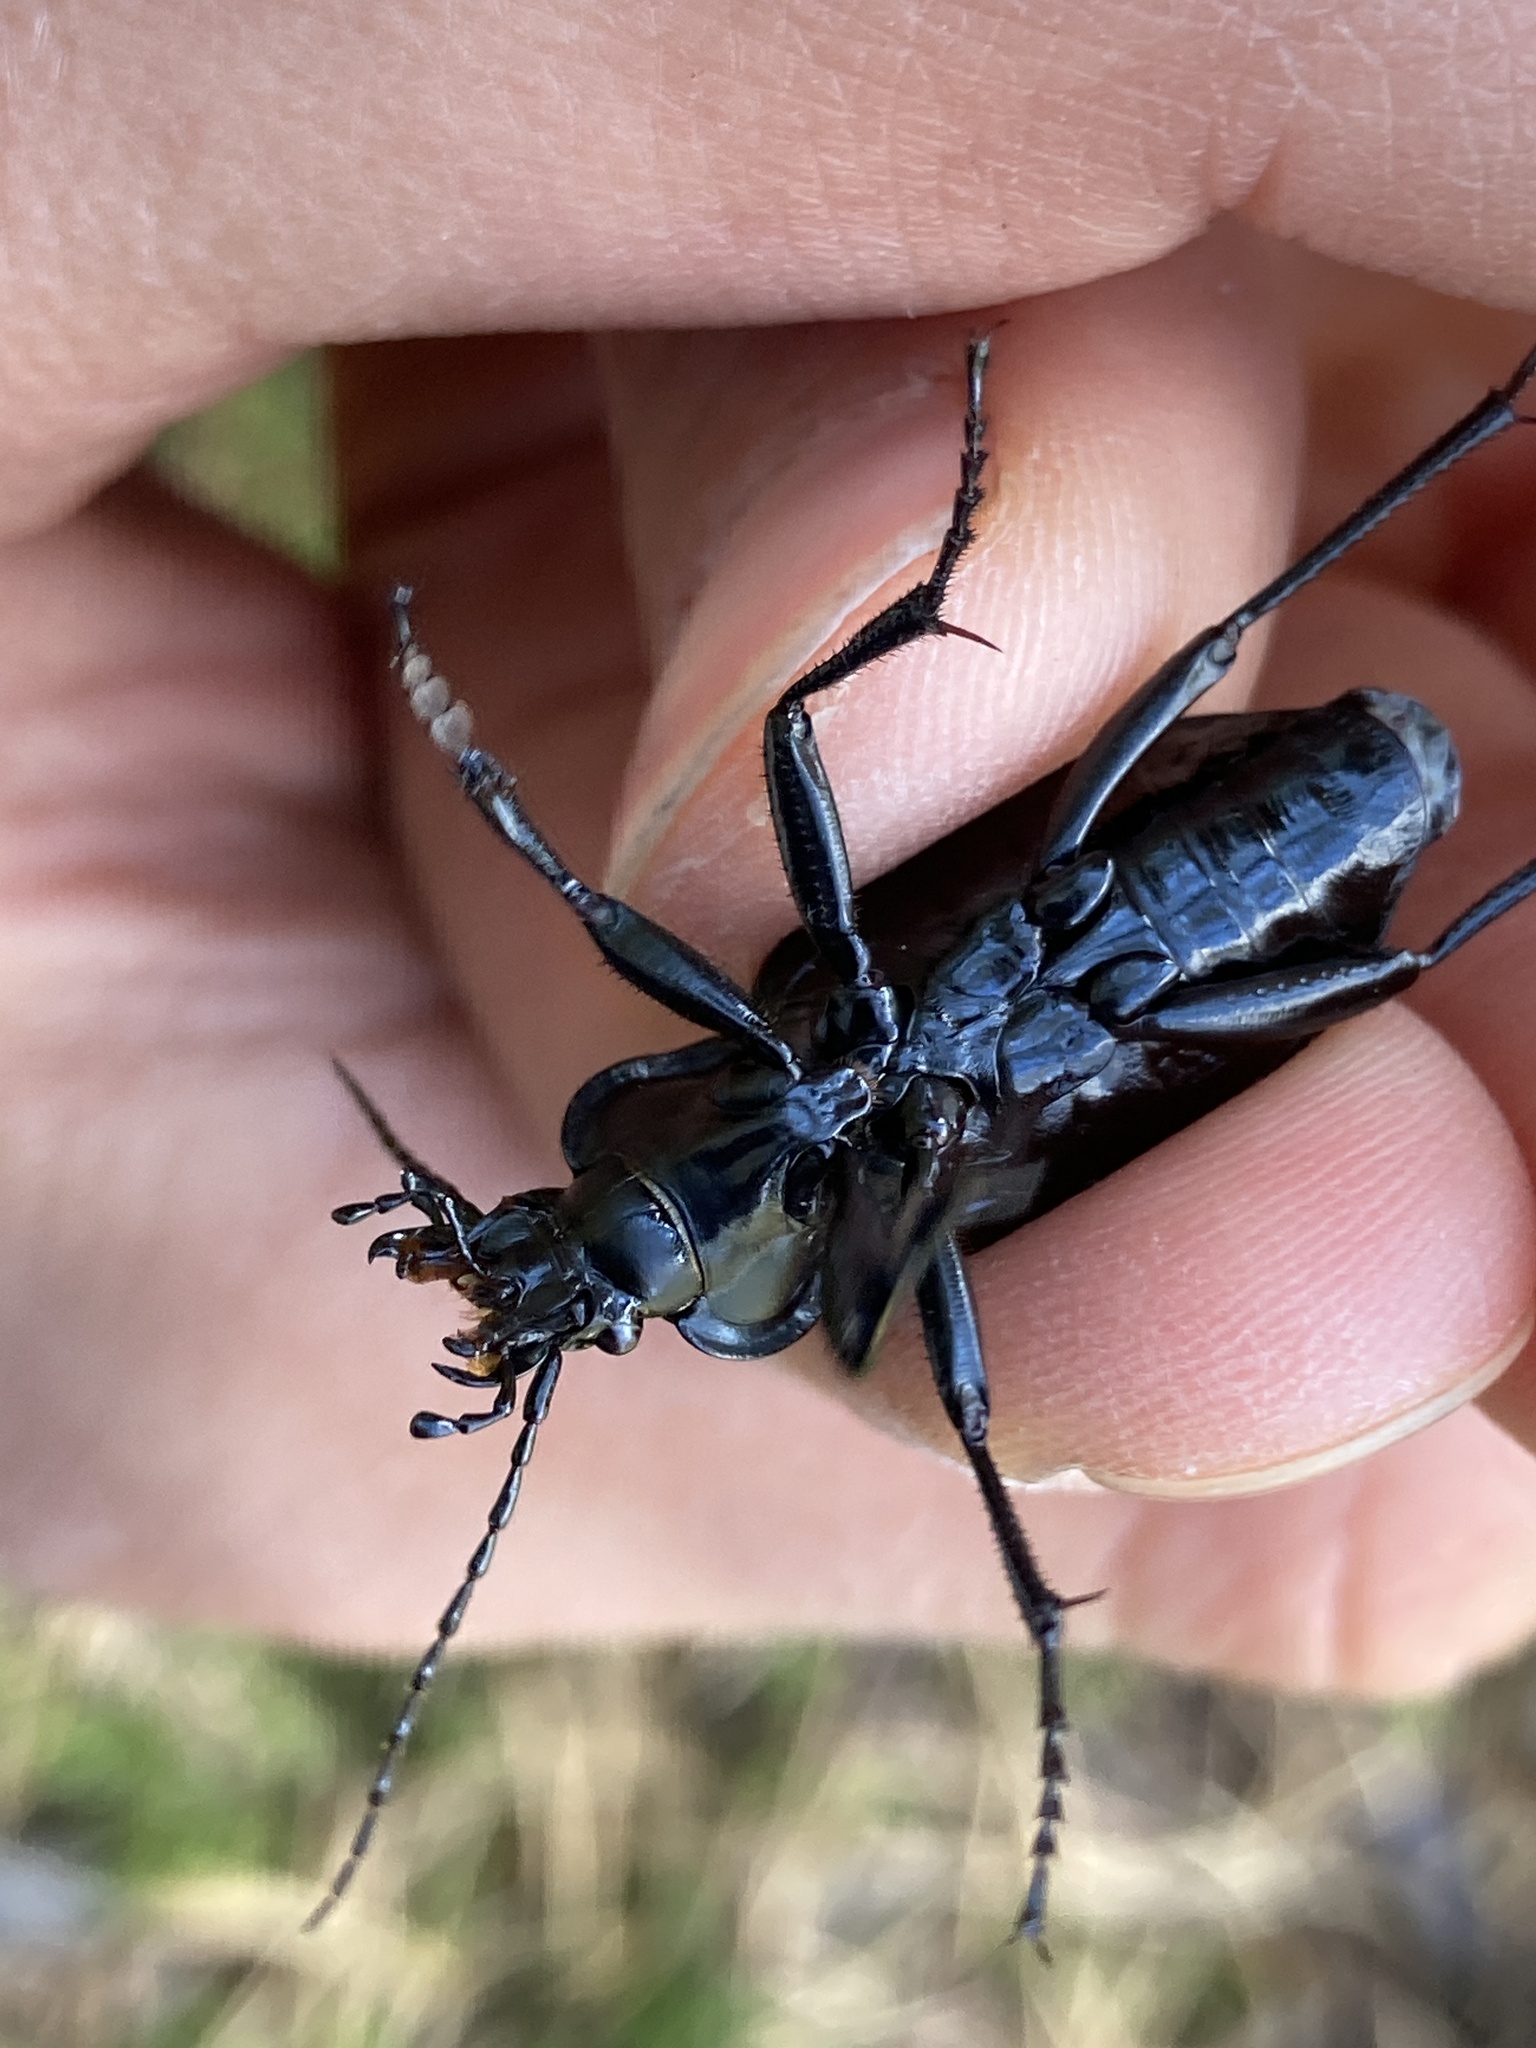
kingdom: Animalia
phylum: Arthropoda
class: Insecta
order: Coleoptera
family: Carabidae
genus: Carabus
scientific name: Carabus glabratus
